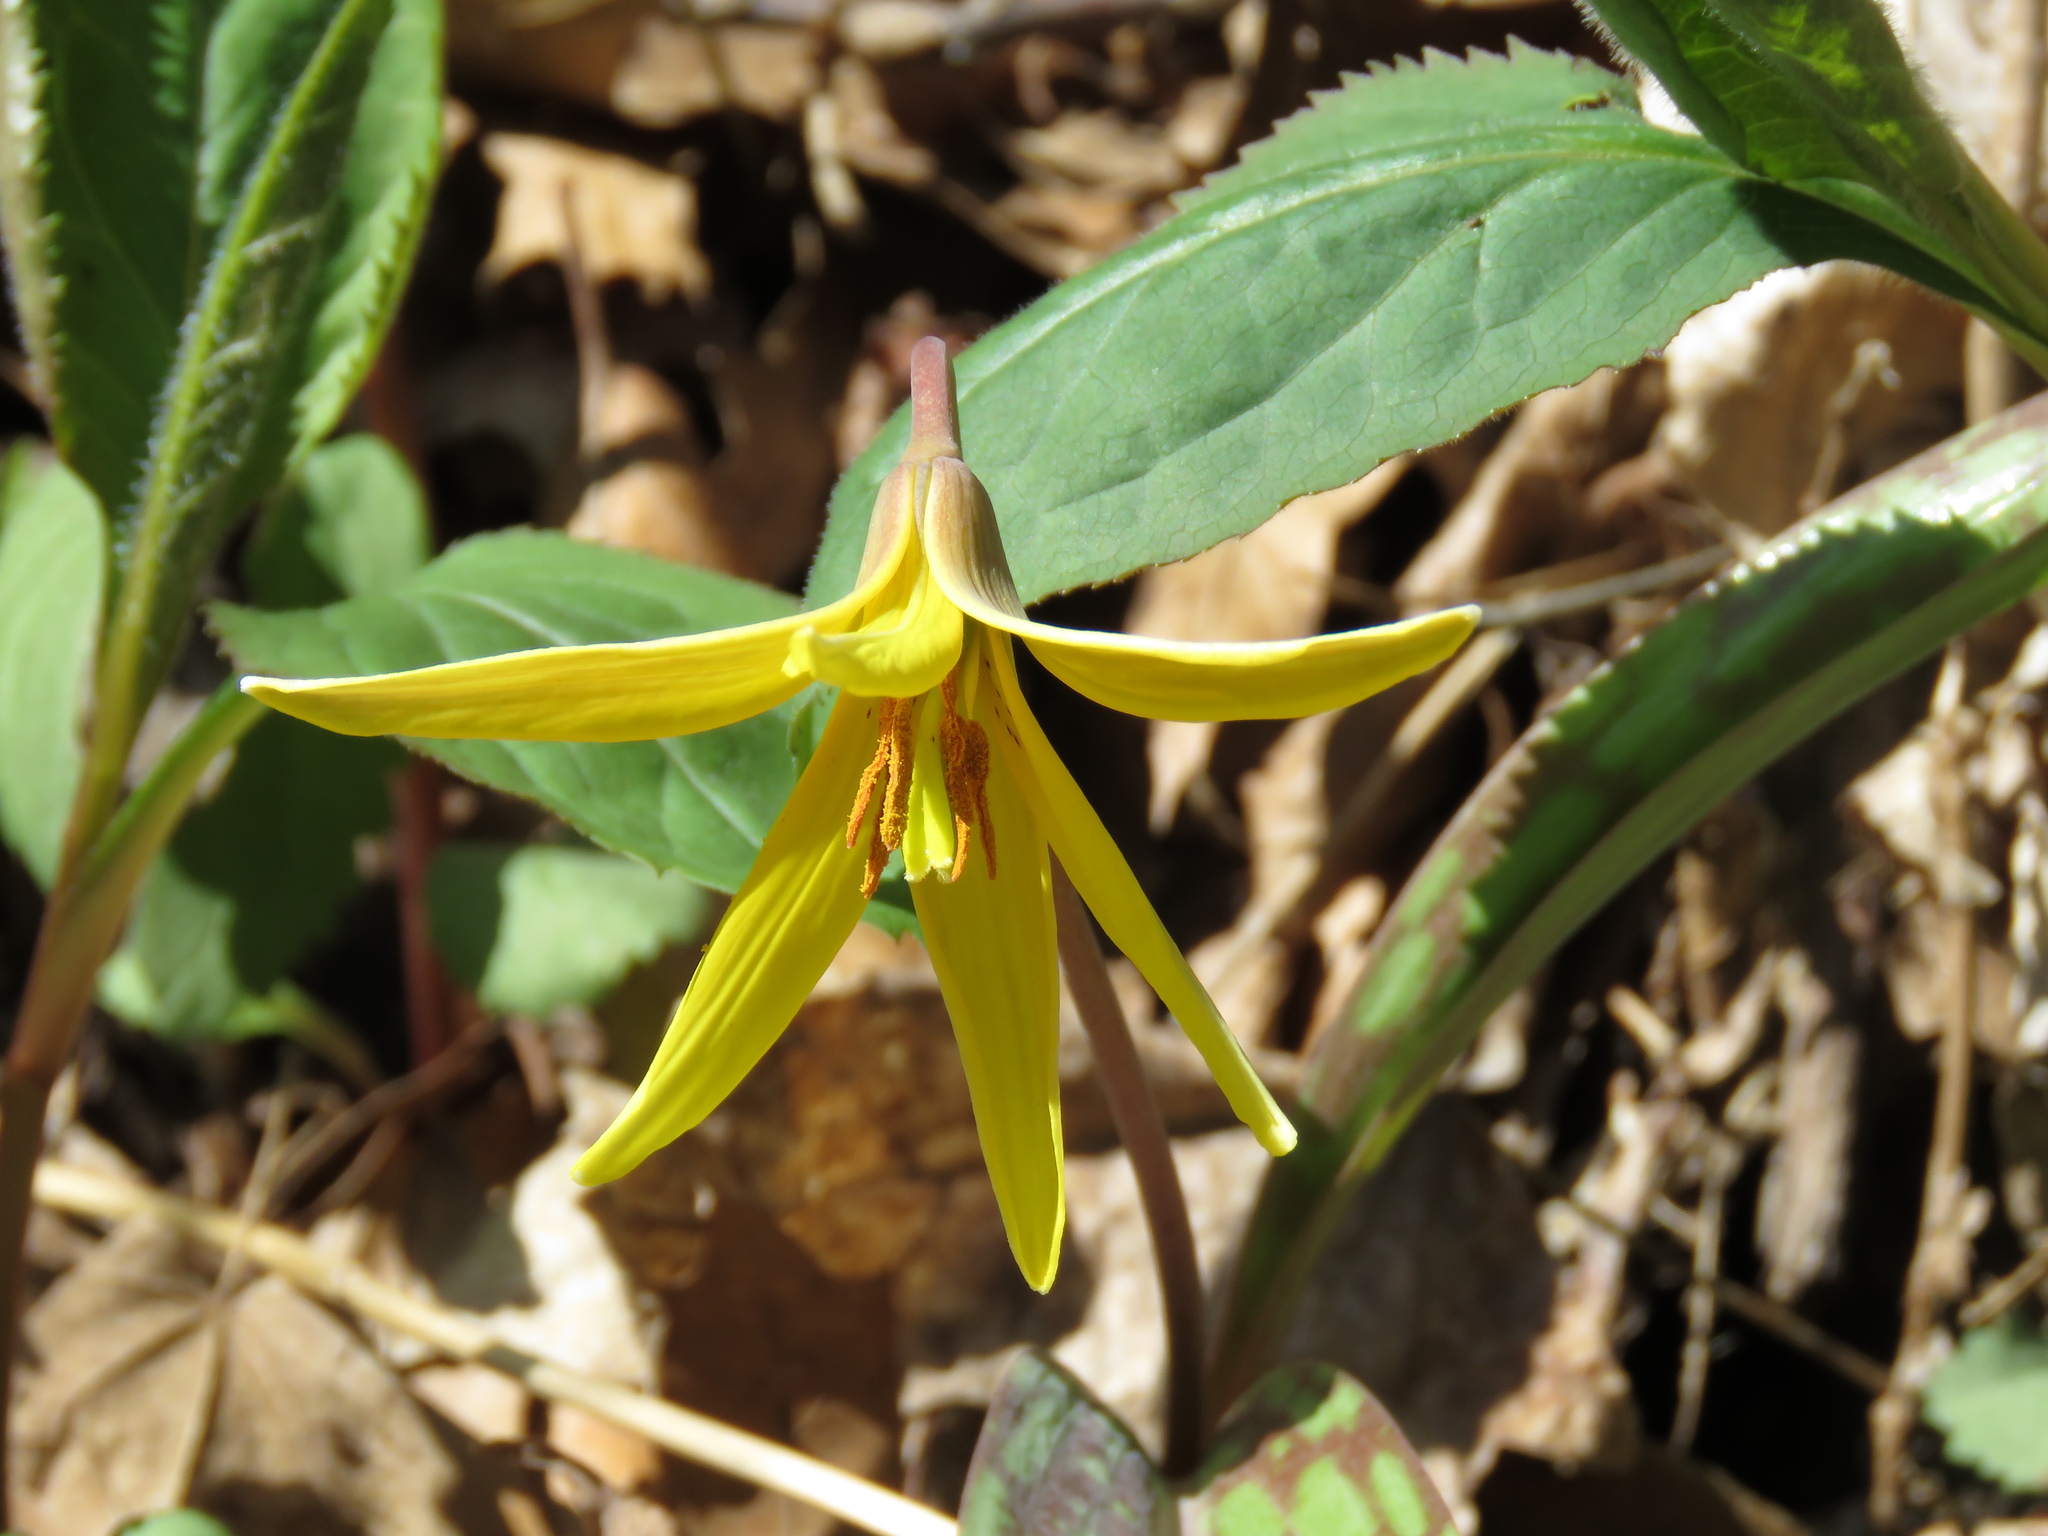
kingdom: Plantae
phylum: Tracheophyta
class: Liliopsida
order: Liliales
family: Liliaceae
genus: Erythronium
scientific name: Erythronium americanum
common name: Yellow adder's-tongue
